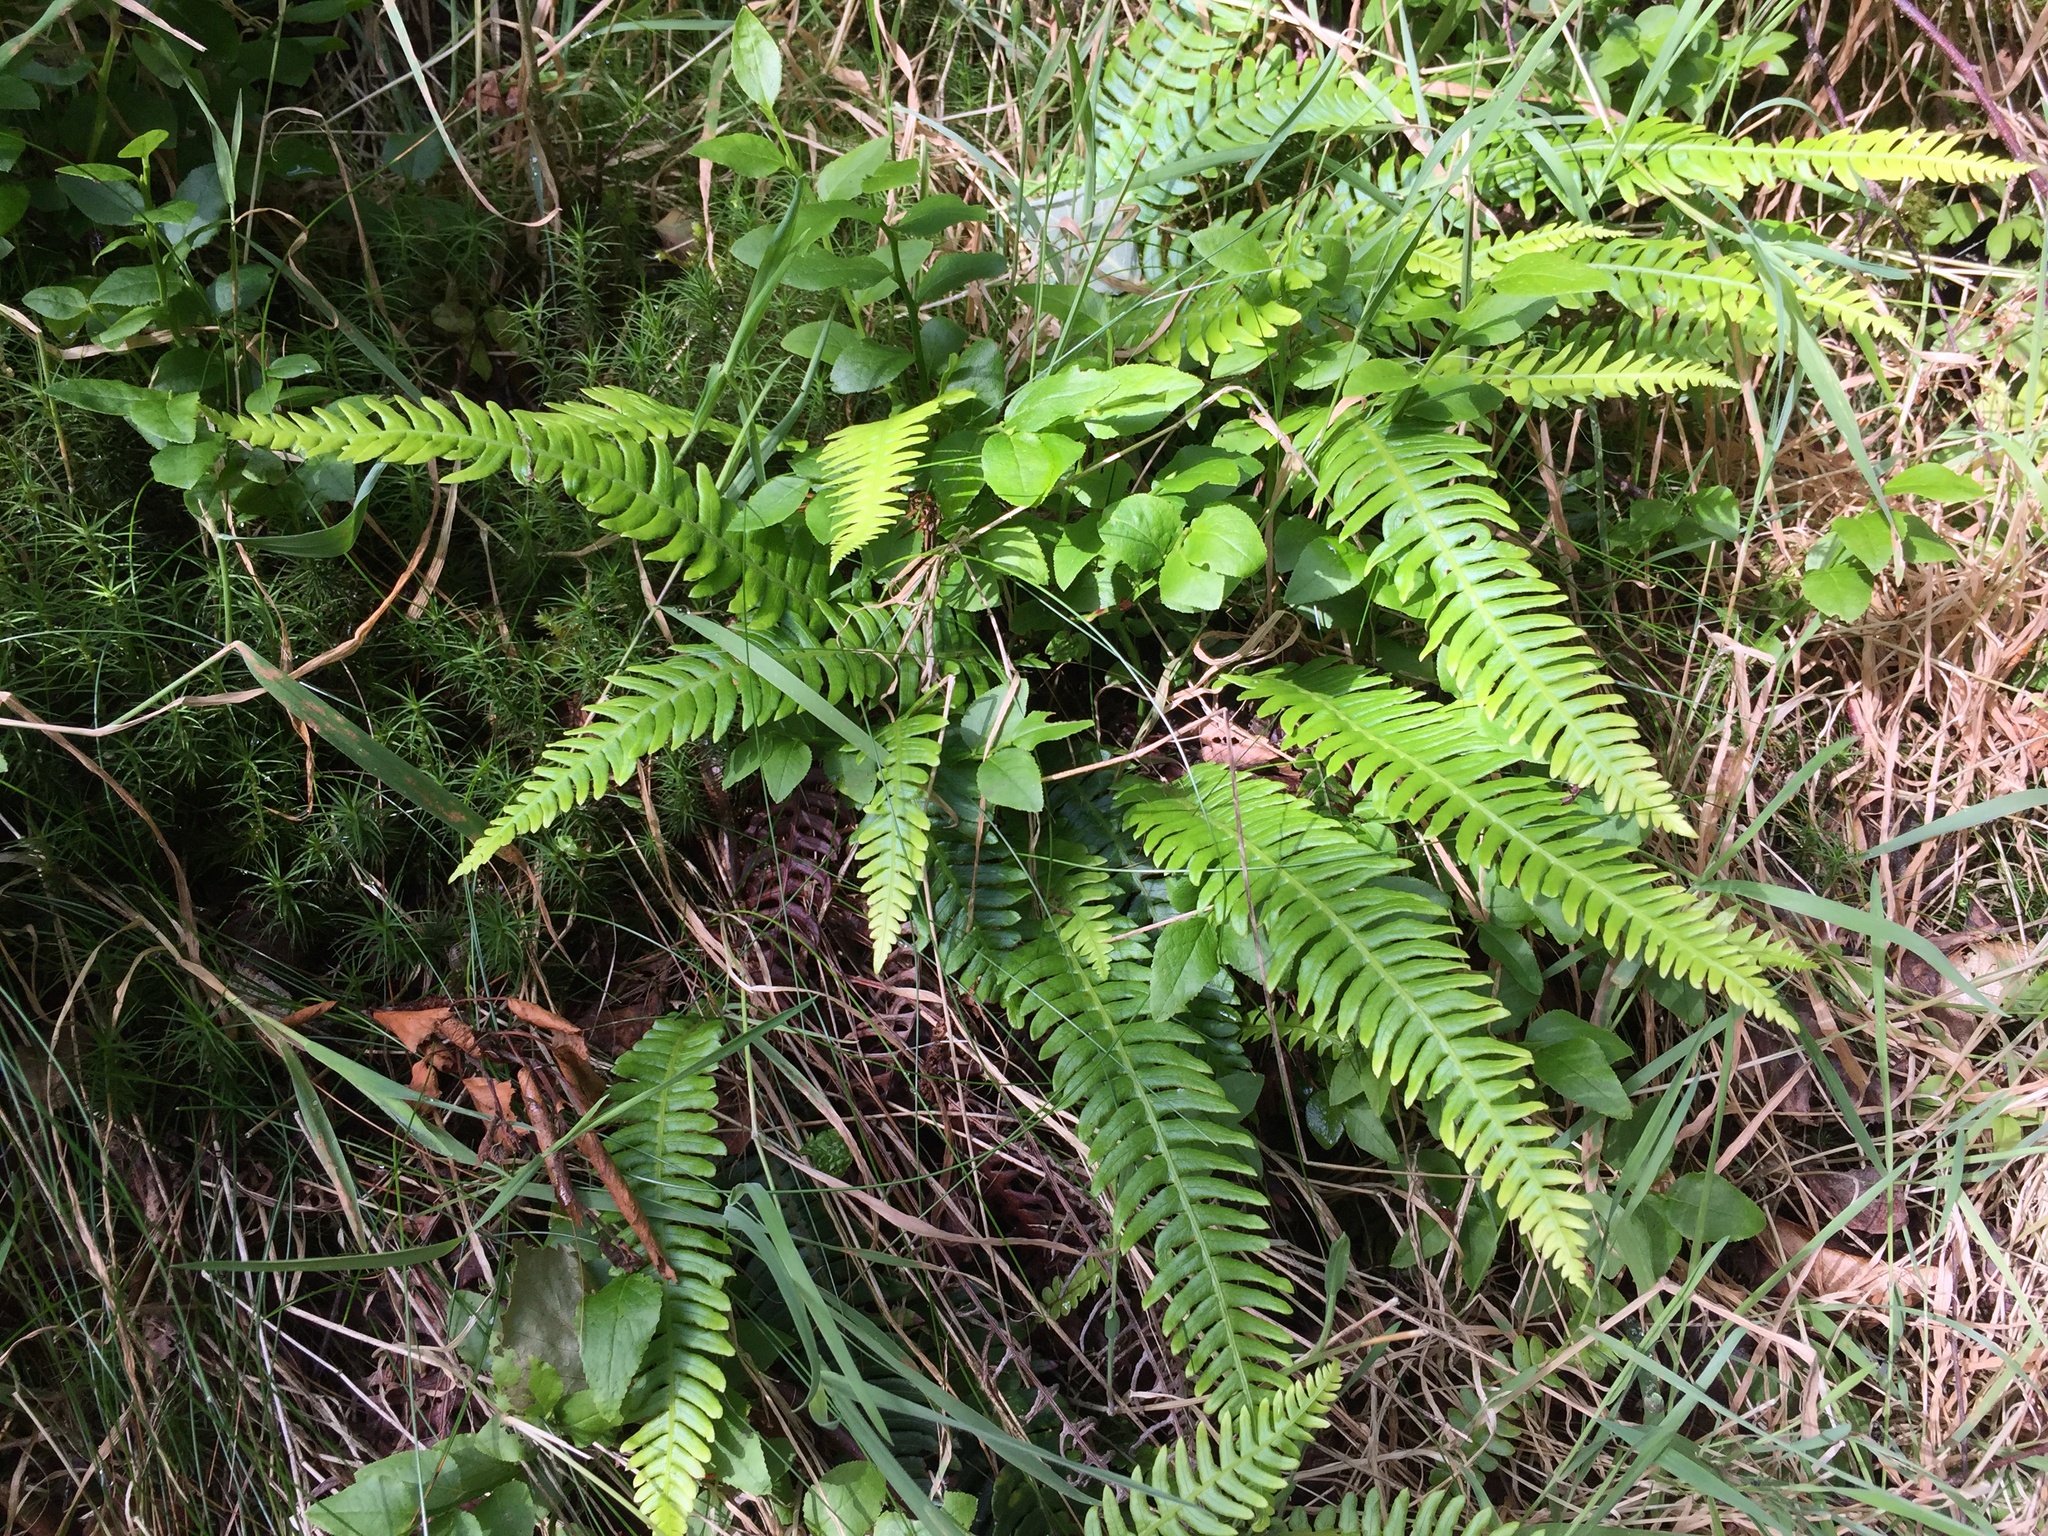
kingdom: Plantae
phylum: Tracheophyta
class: Polypodiopsida
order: Polypodiales
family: Blechnaceae
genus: Struthiopteris
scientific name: Struthiopteris spicant
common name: Deer fern
